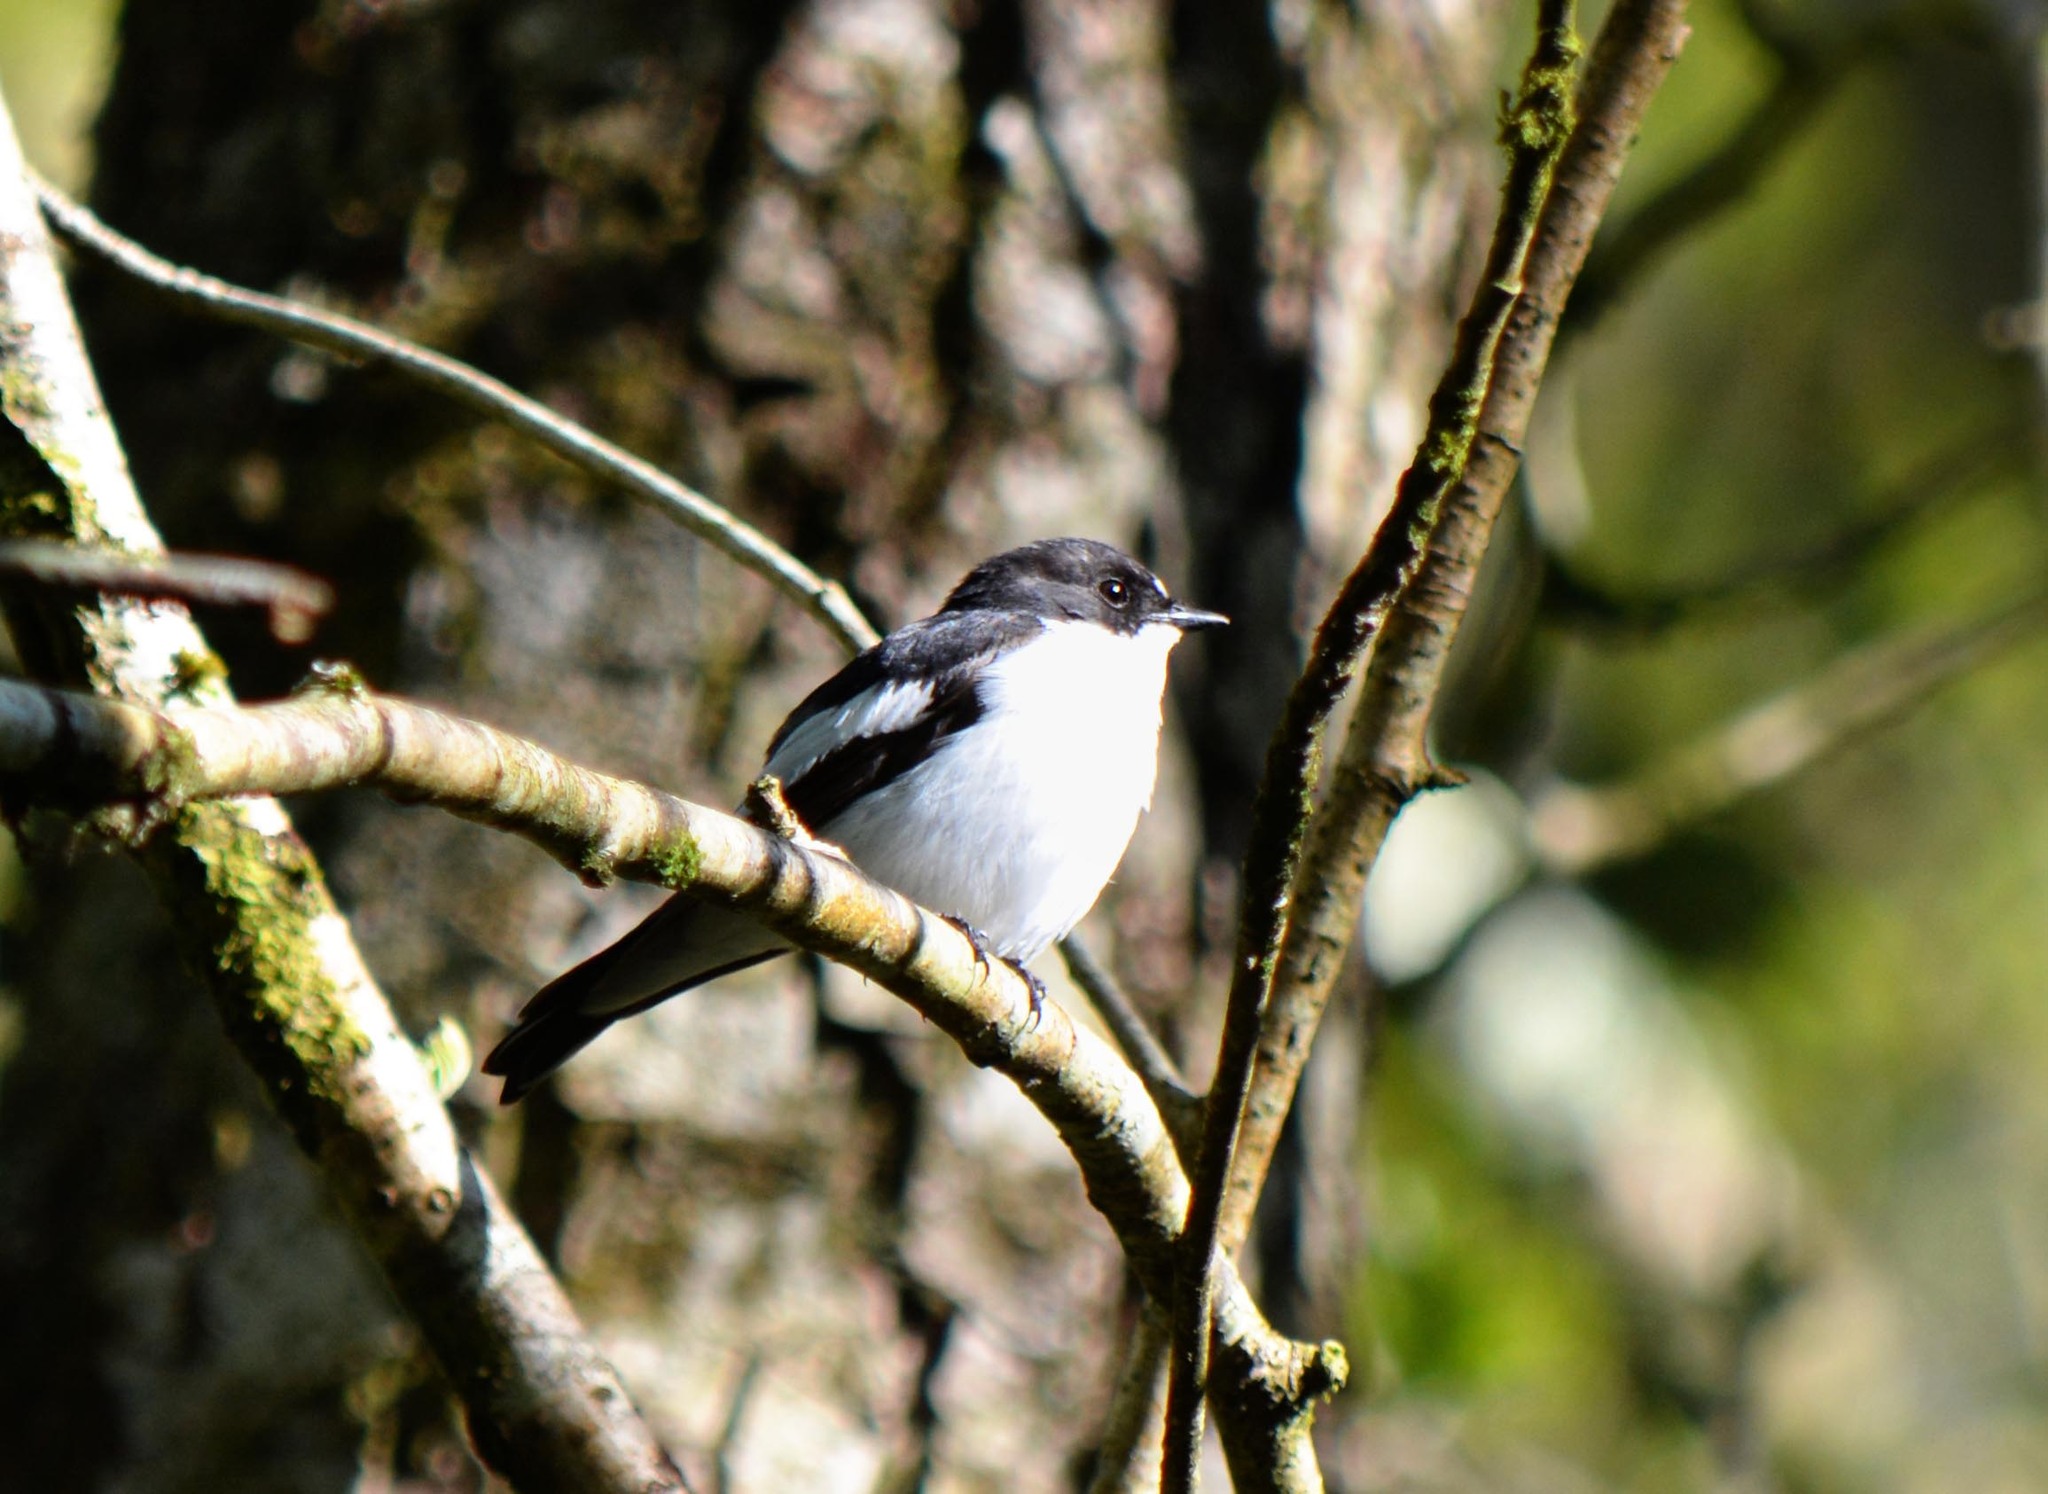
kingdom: Animalia
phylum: Chordata
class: Aves
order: Passeriformes
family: Muscicapidae
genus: Ficedula
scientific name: Ficedula hypoleuca
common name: European pied flycatcher
